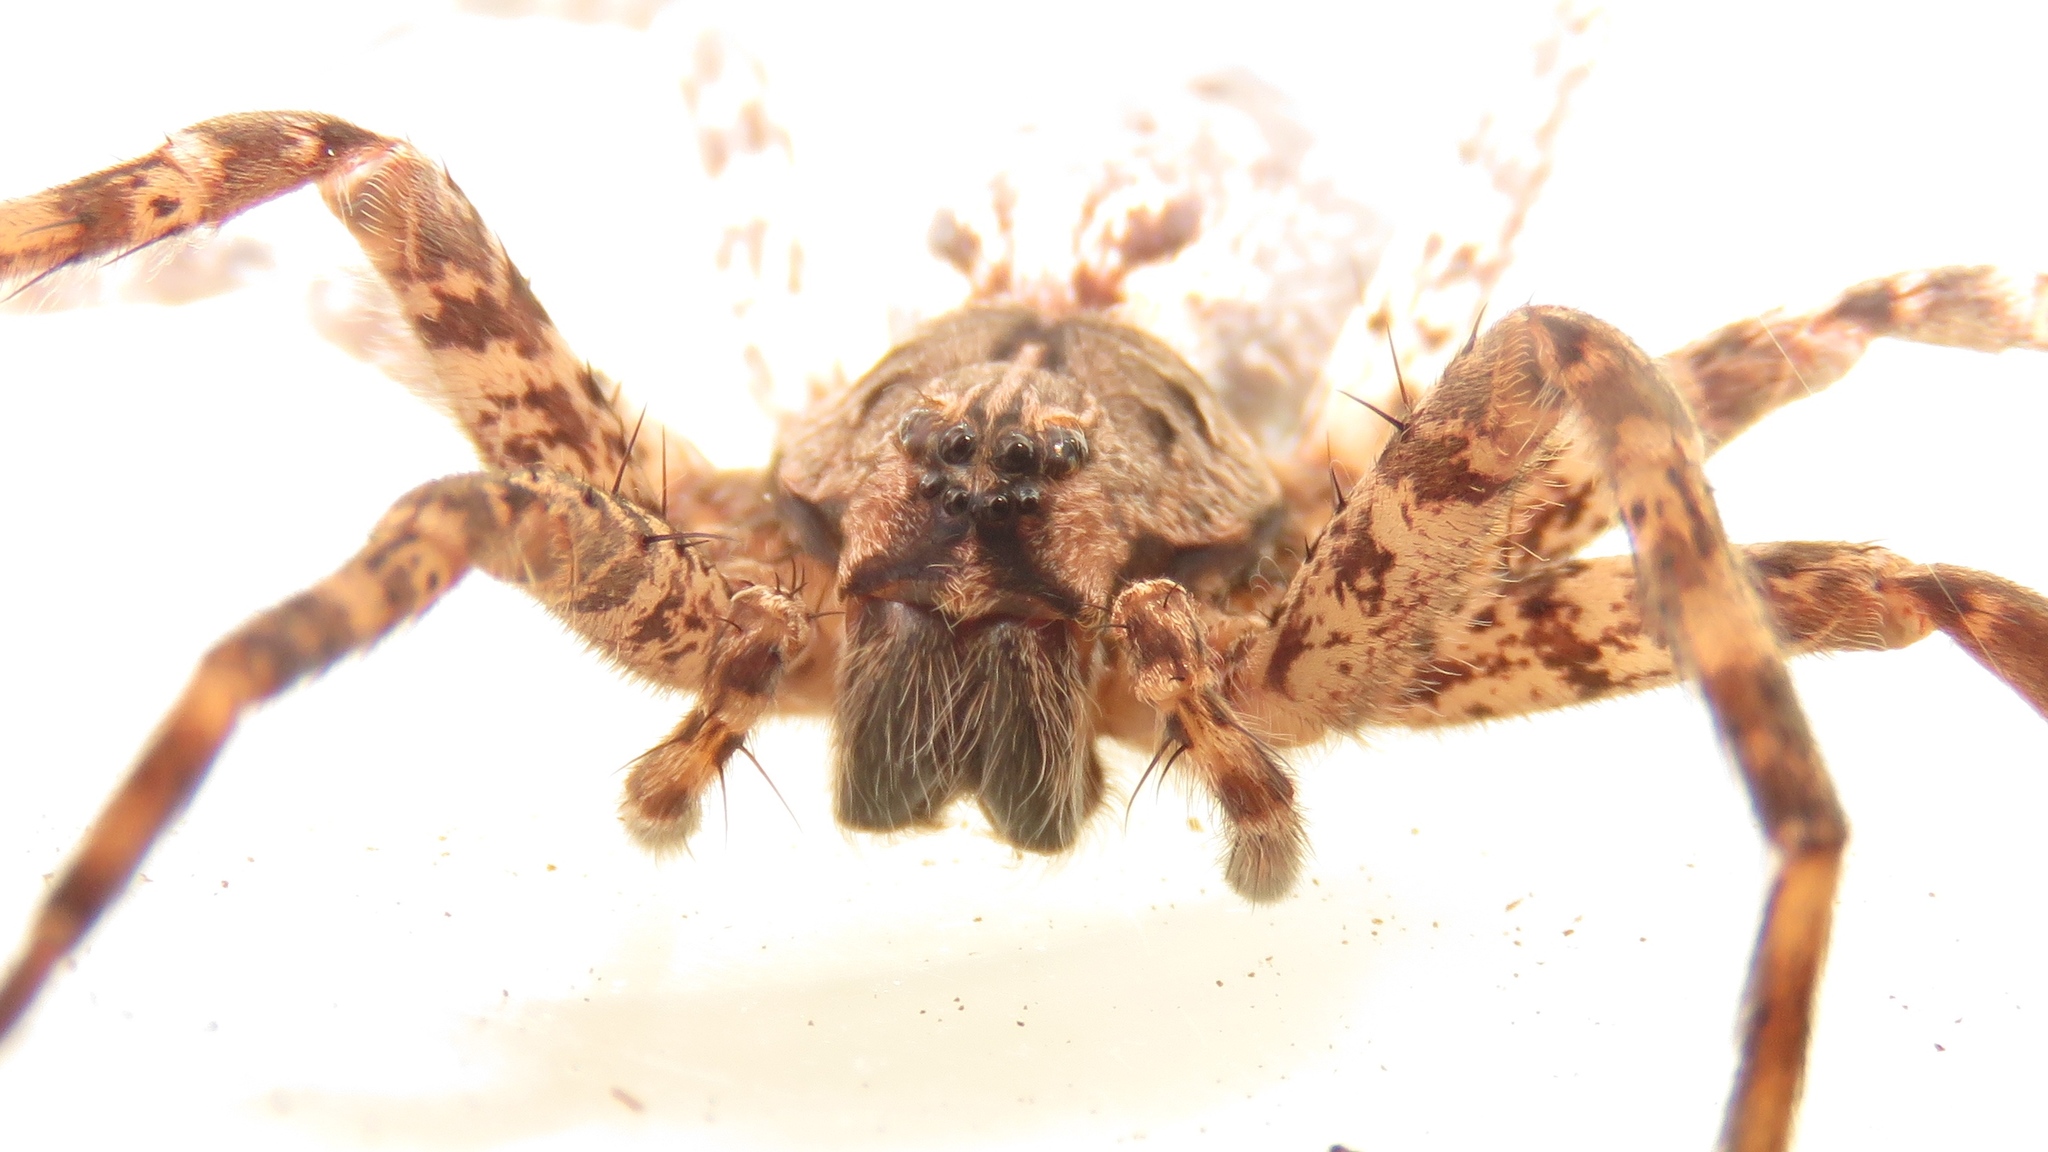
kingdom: Animalia
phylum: Arthropoda
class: Arachnida
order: Araneae
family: Pisauridae
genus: Dolomedes
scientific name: Dolomedes tenebrosus
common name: Dark fishing spider
